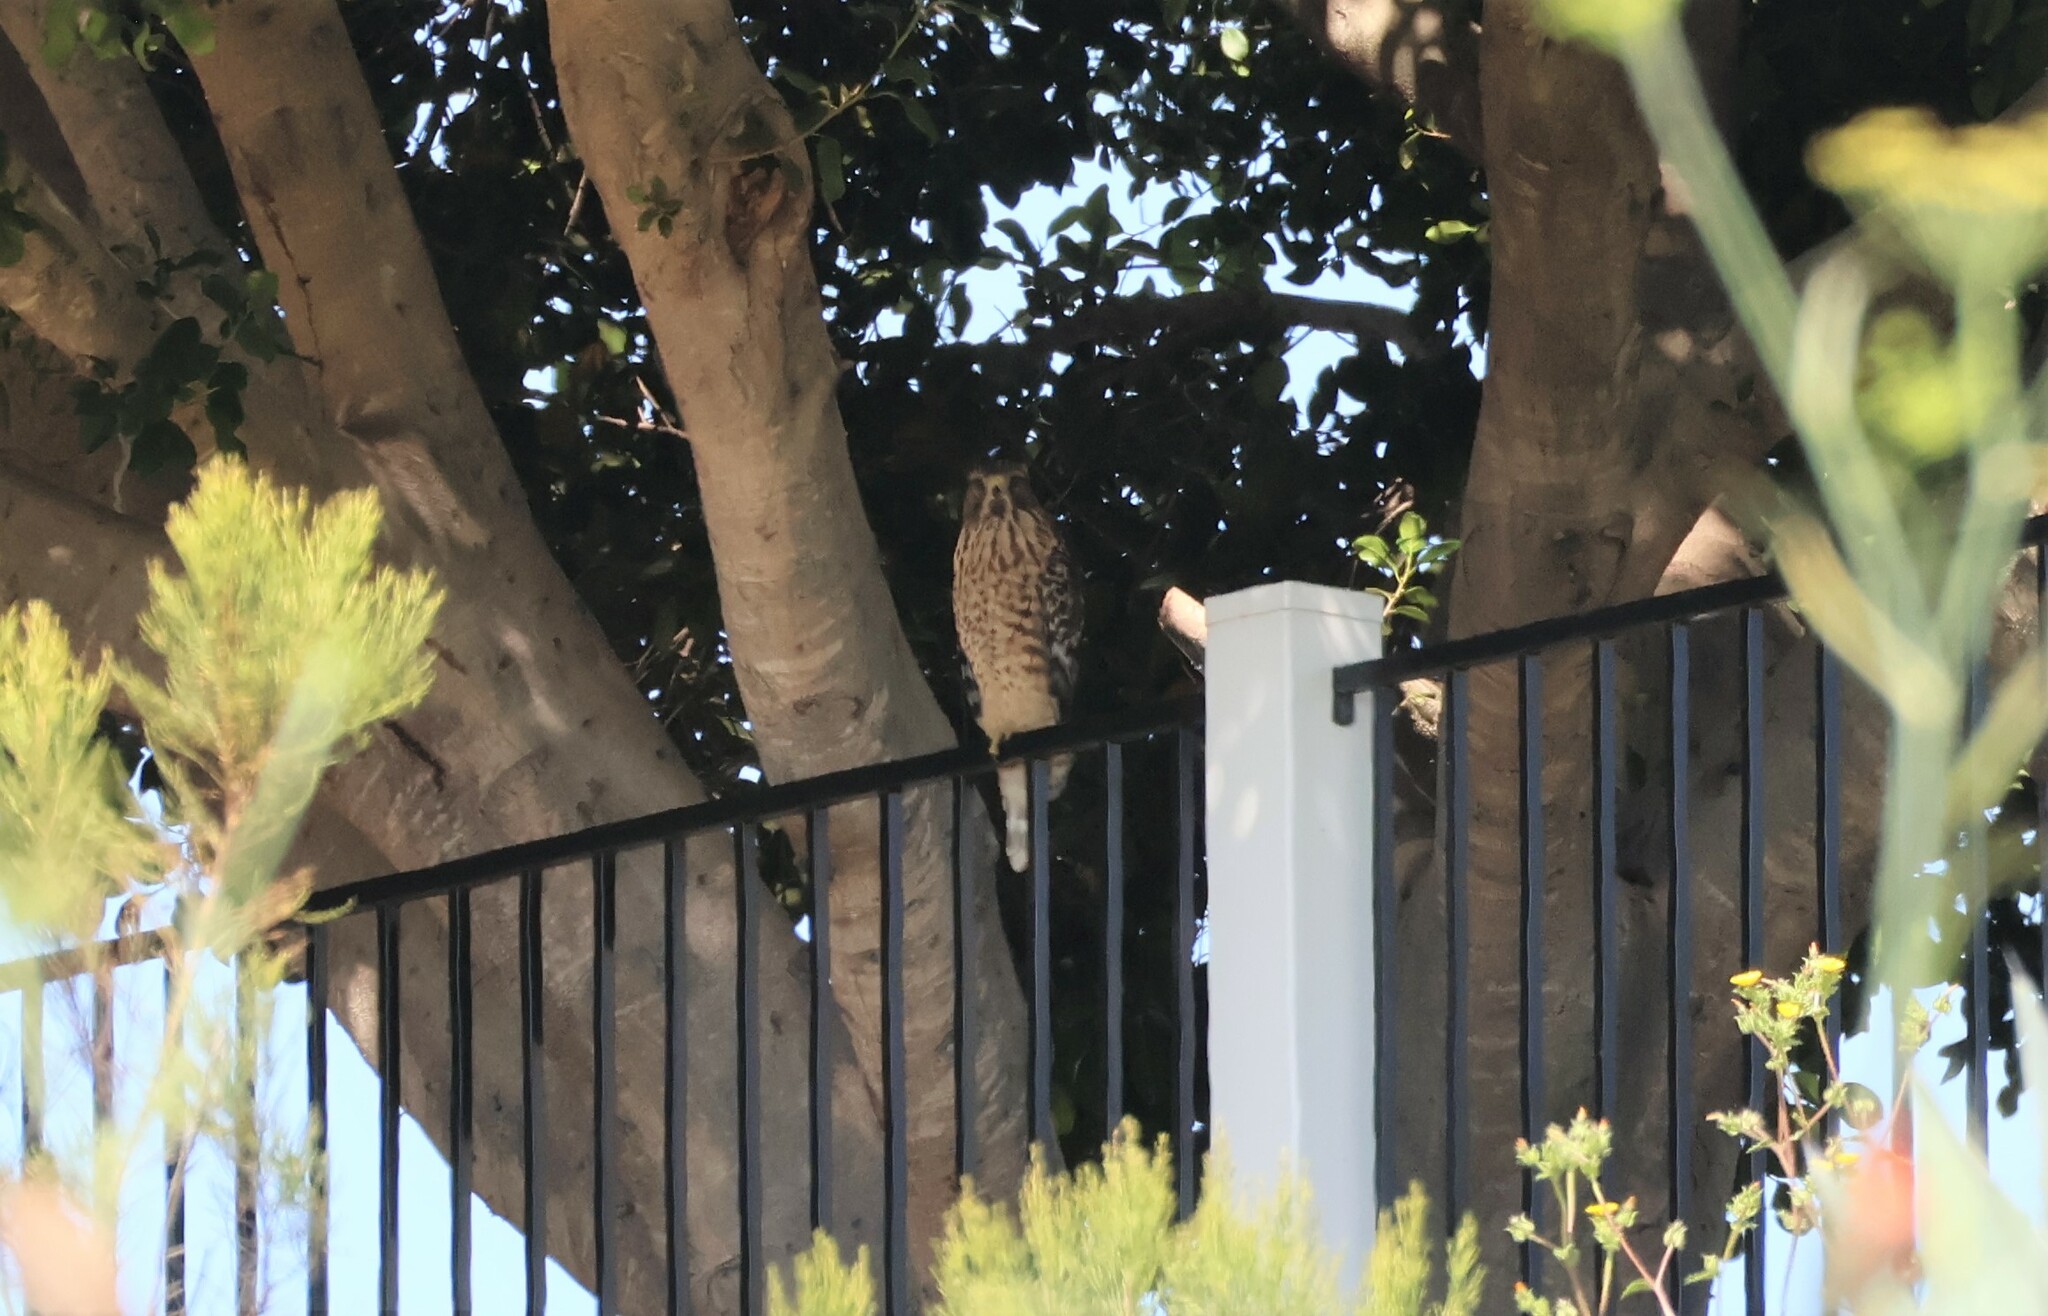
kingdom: Animalia
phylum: Chordata
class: Aves
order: Accipitriformes
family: Accipitridae
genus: Buteo
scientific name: Buteo lineatus
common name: Red-shouldered hawk
